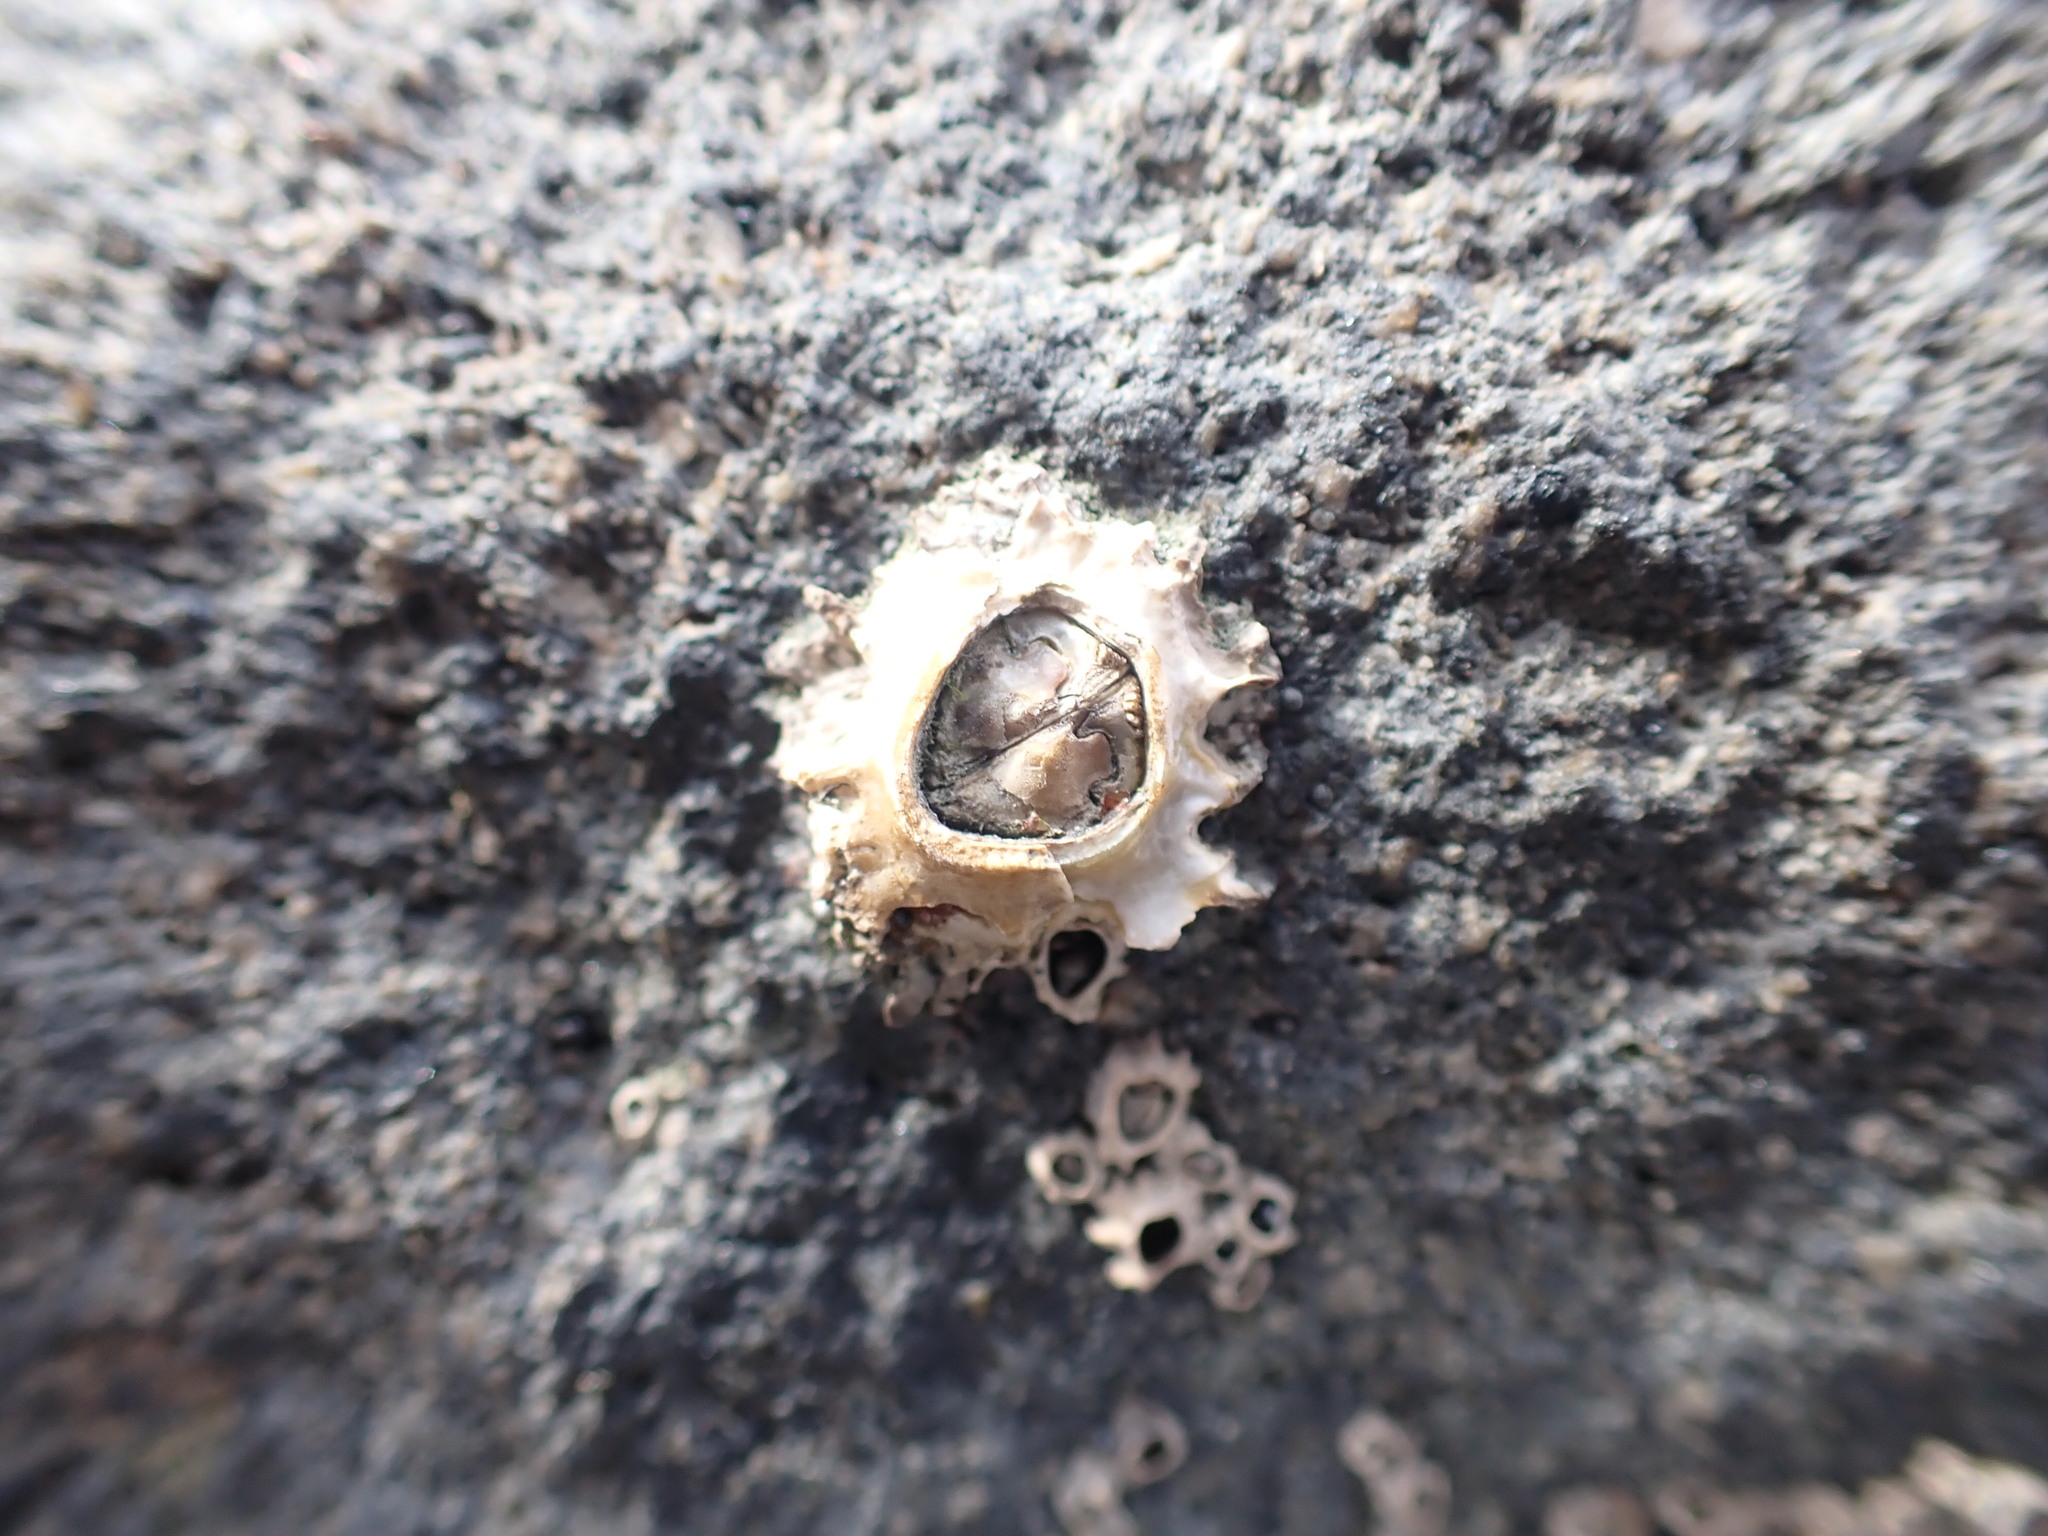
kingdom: Animalia
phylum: Arthropoda
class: Maxillopoda
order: Sessilia
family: Chthamalidae
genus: Chamaesipho
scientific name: Chamaesipho brunnea
